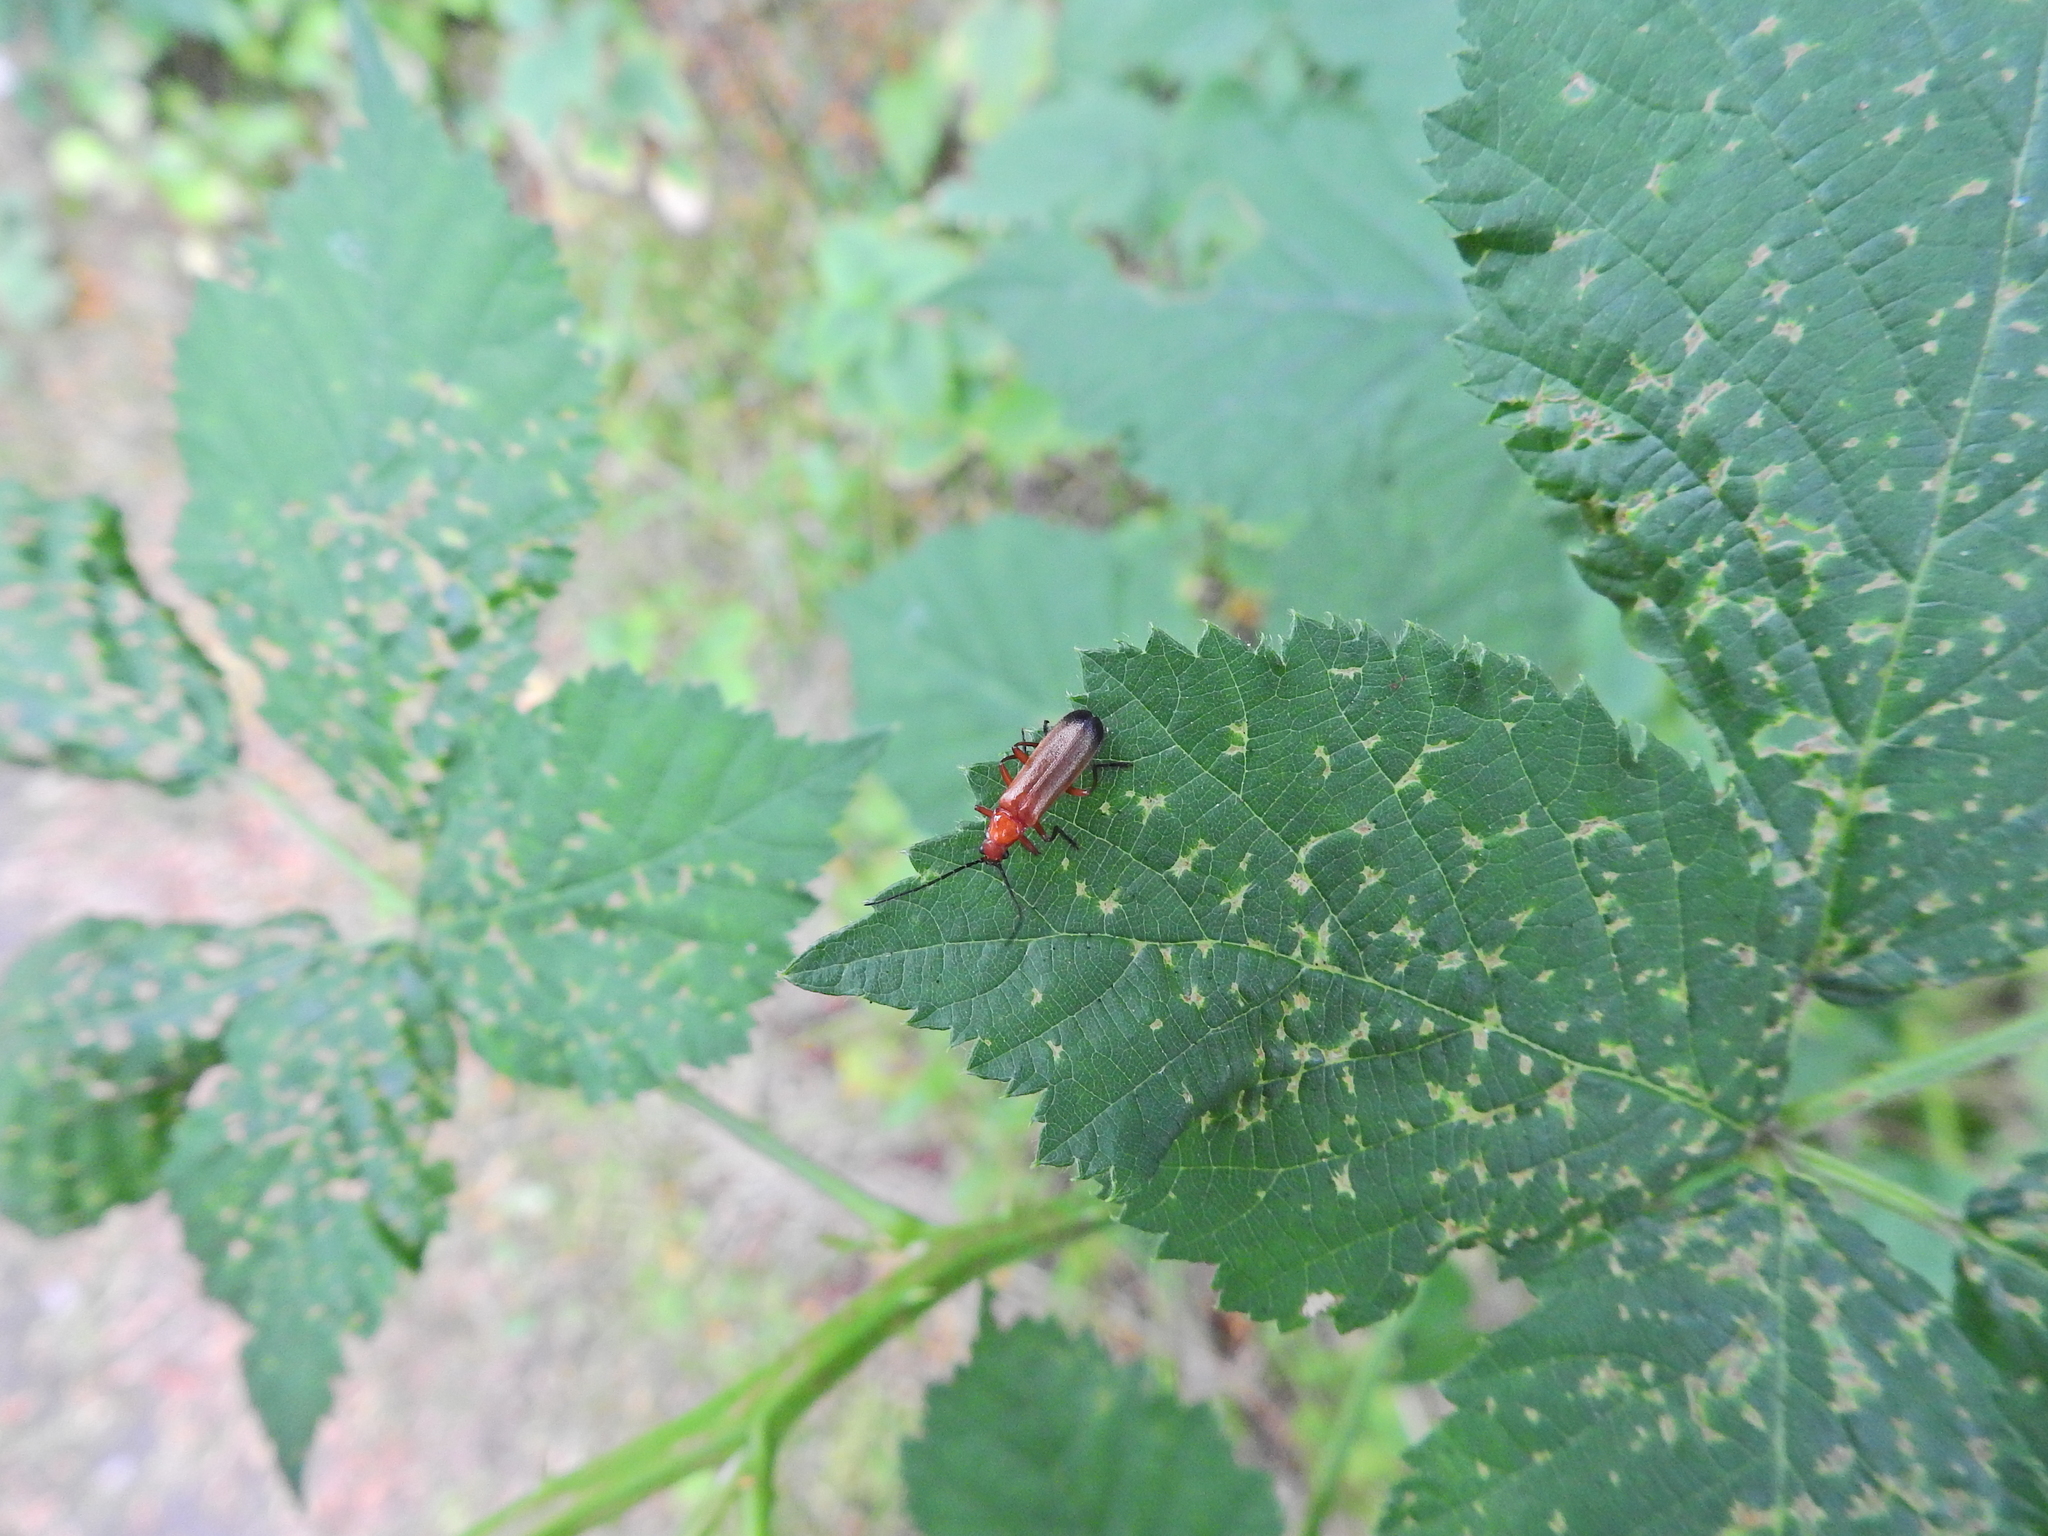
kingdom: Animalia
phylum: Arthropoda
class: Insecta
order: Coleoptera
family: Cantharidae
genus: Rhagonycha
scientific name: Rhagonycha fulva
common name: Common red soldier beetle
